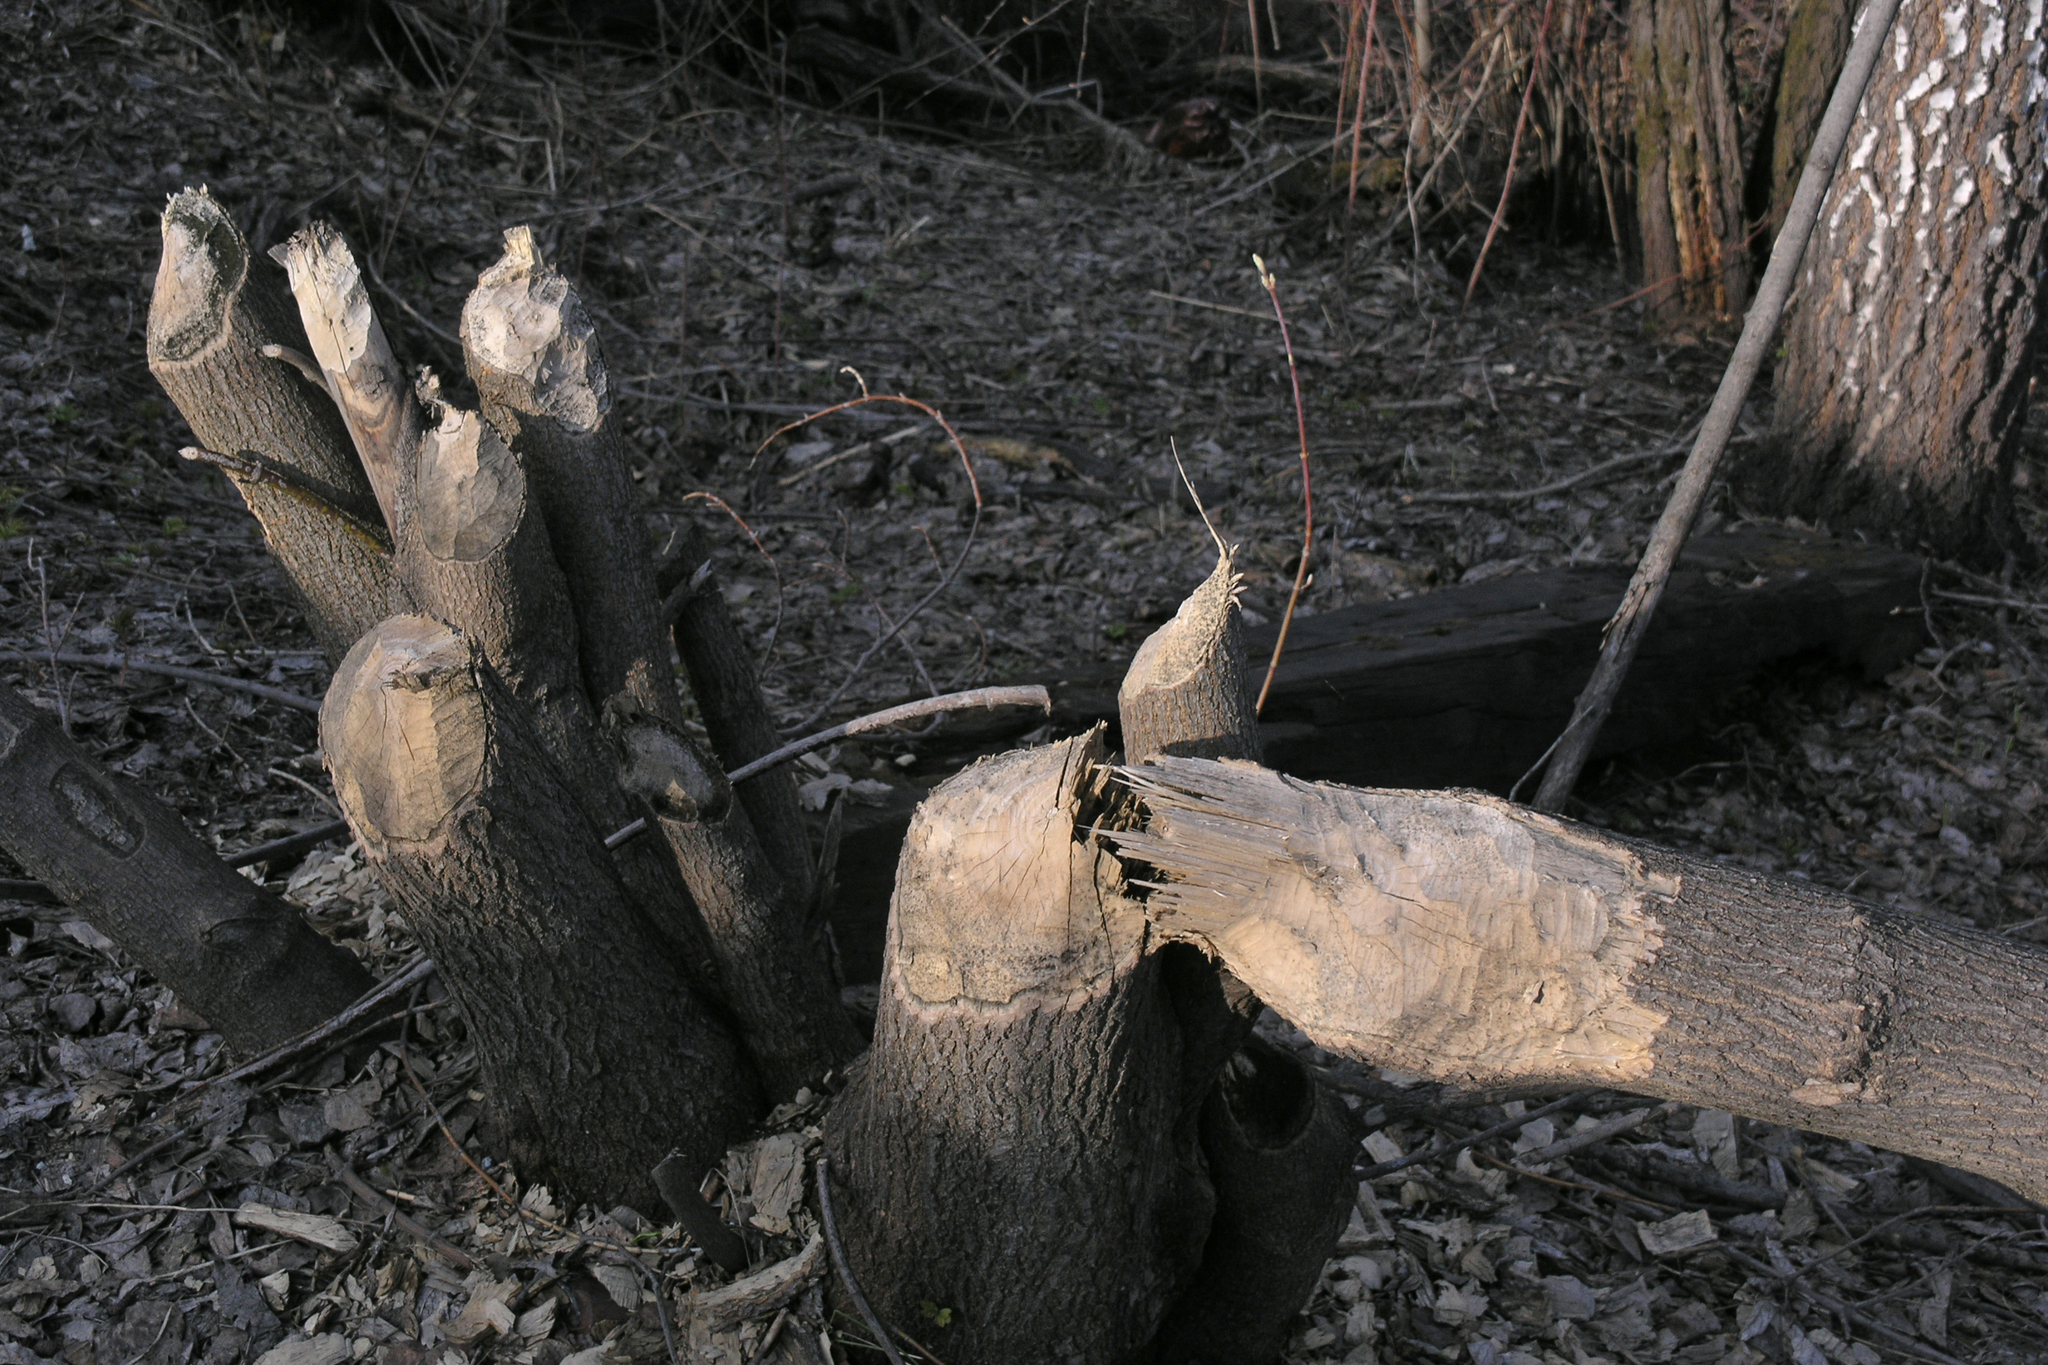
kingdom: Animalia
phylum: Chordata
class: Mammalia
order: Rodentia
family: Castoridae
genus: Castor
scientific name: Castor fiber
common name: Eurasian beaver
